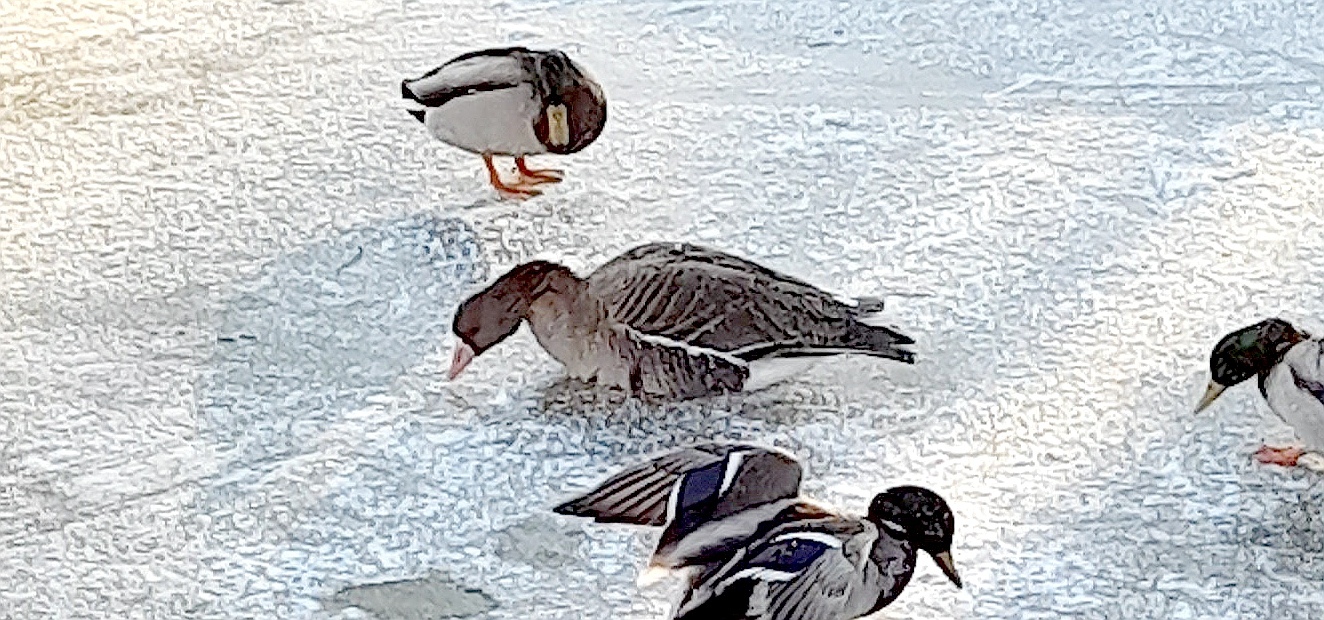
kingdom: Animalia
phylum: Chordata
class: Aves
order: Anseriformes
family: Anatidae
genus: Anser
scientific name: Anser albifrons
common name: Greater white-fronted goose
